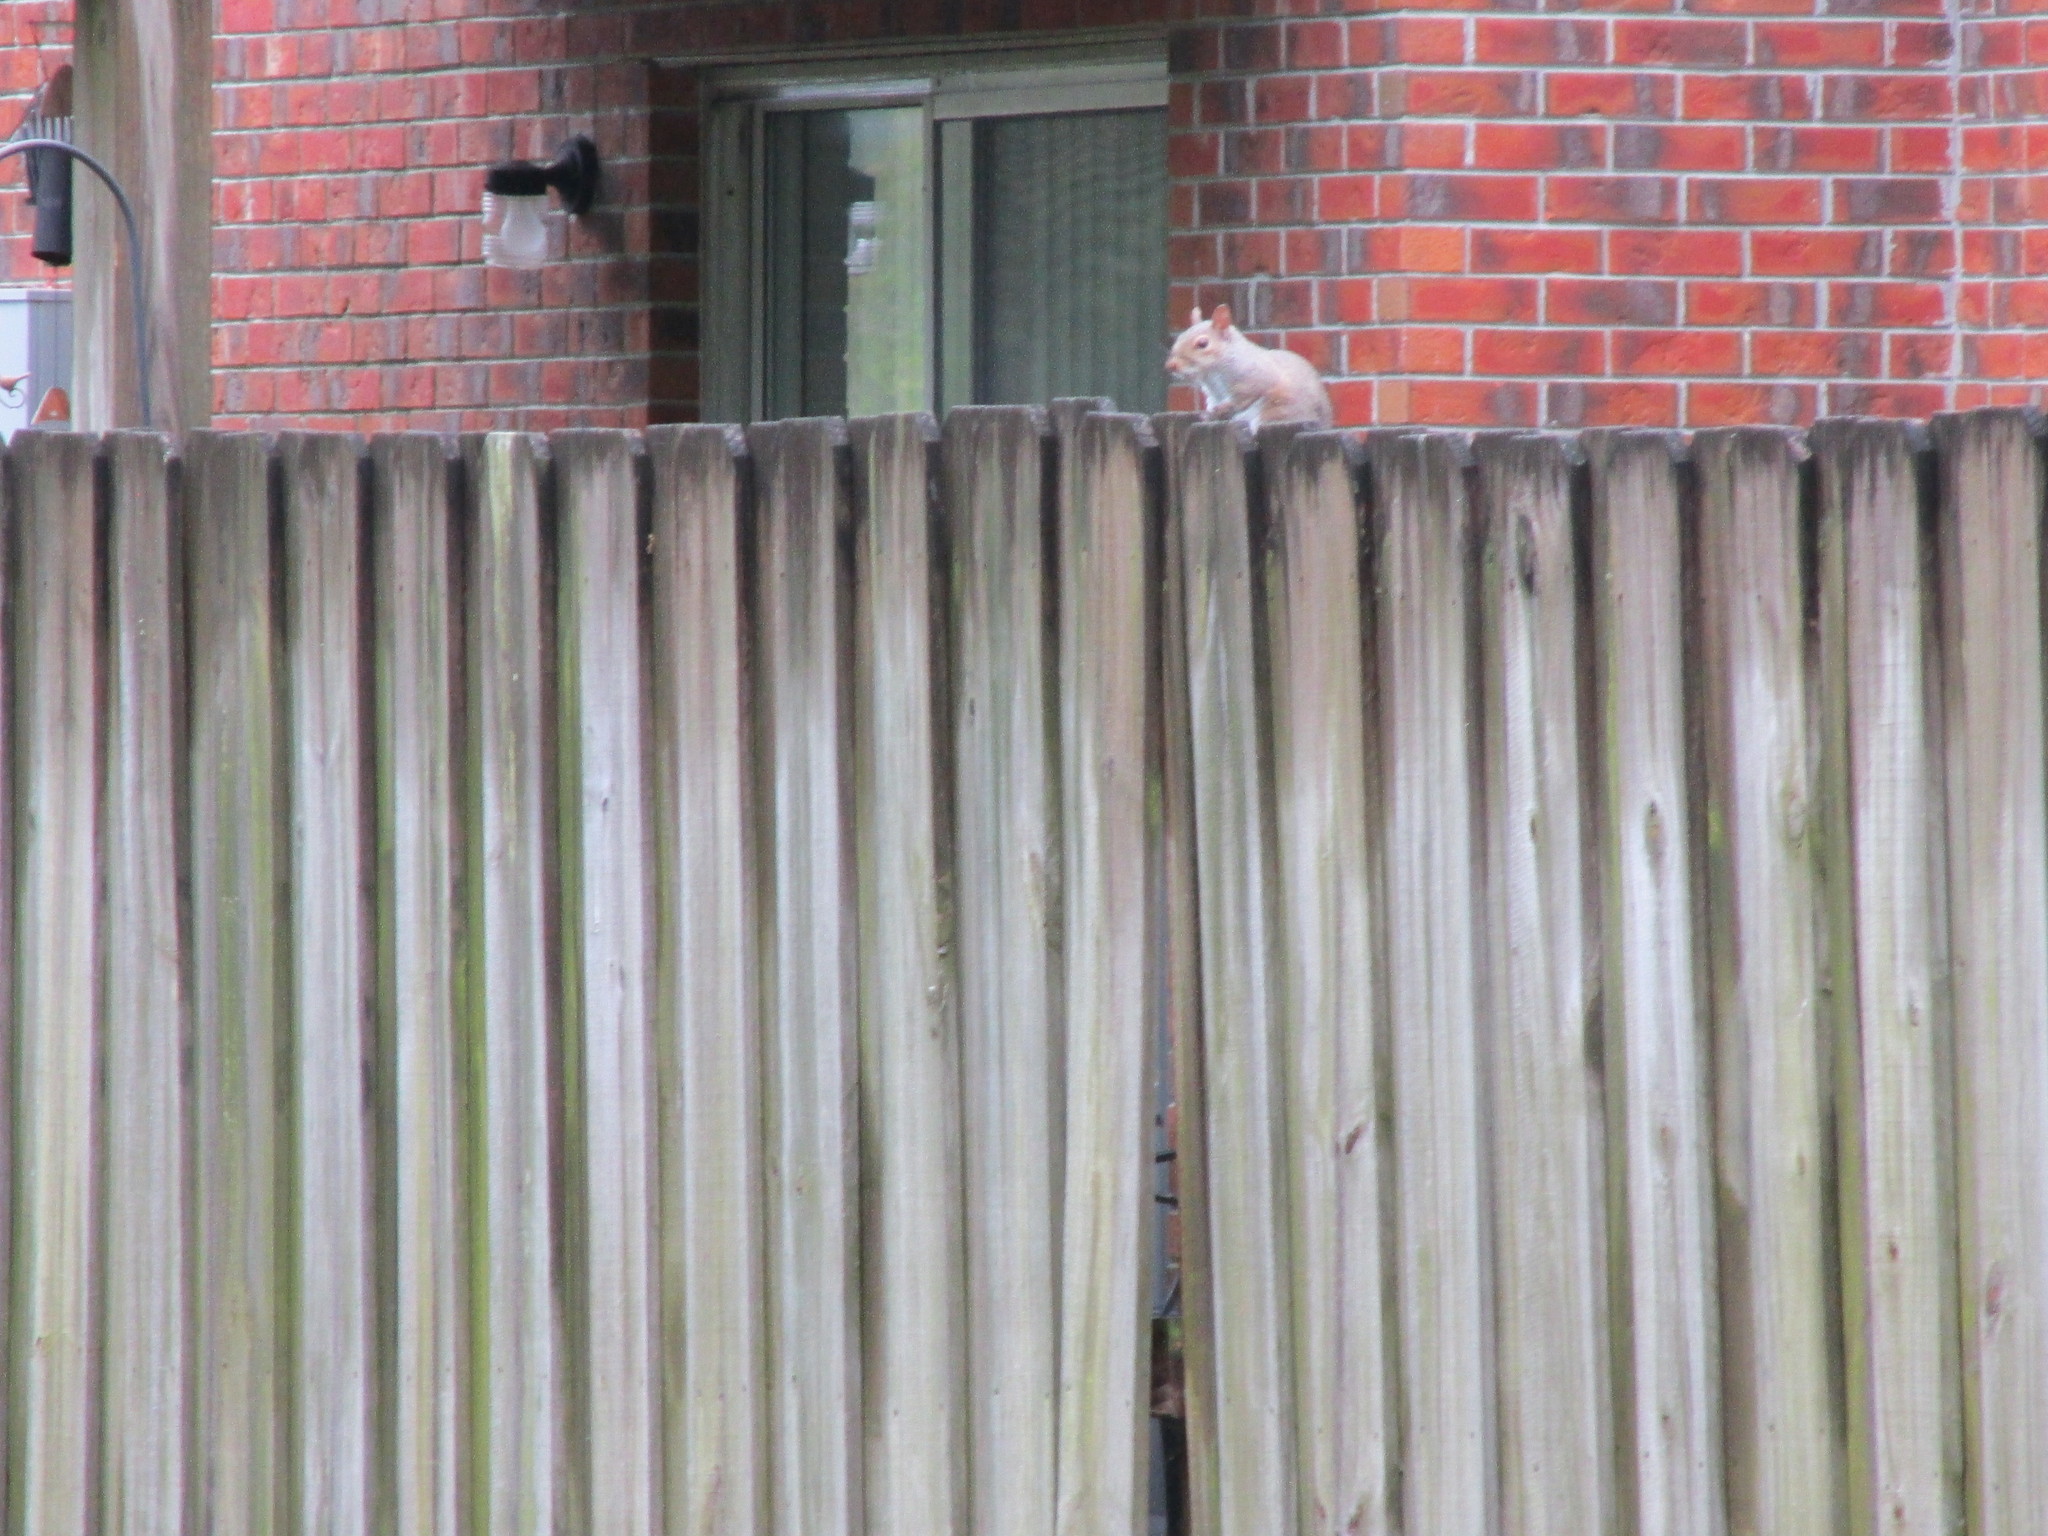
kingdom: Animalia
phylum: Chordata
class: Mammalia
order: Rodentia
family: Sciuridae
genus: Sciurus
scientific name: Sciurus carolinensis
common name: Eastern gray squirrel
